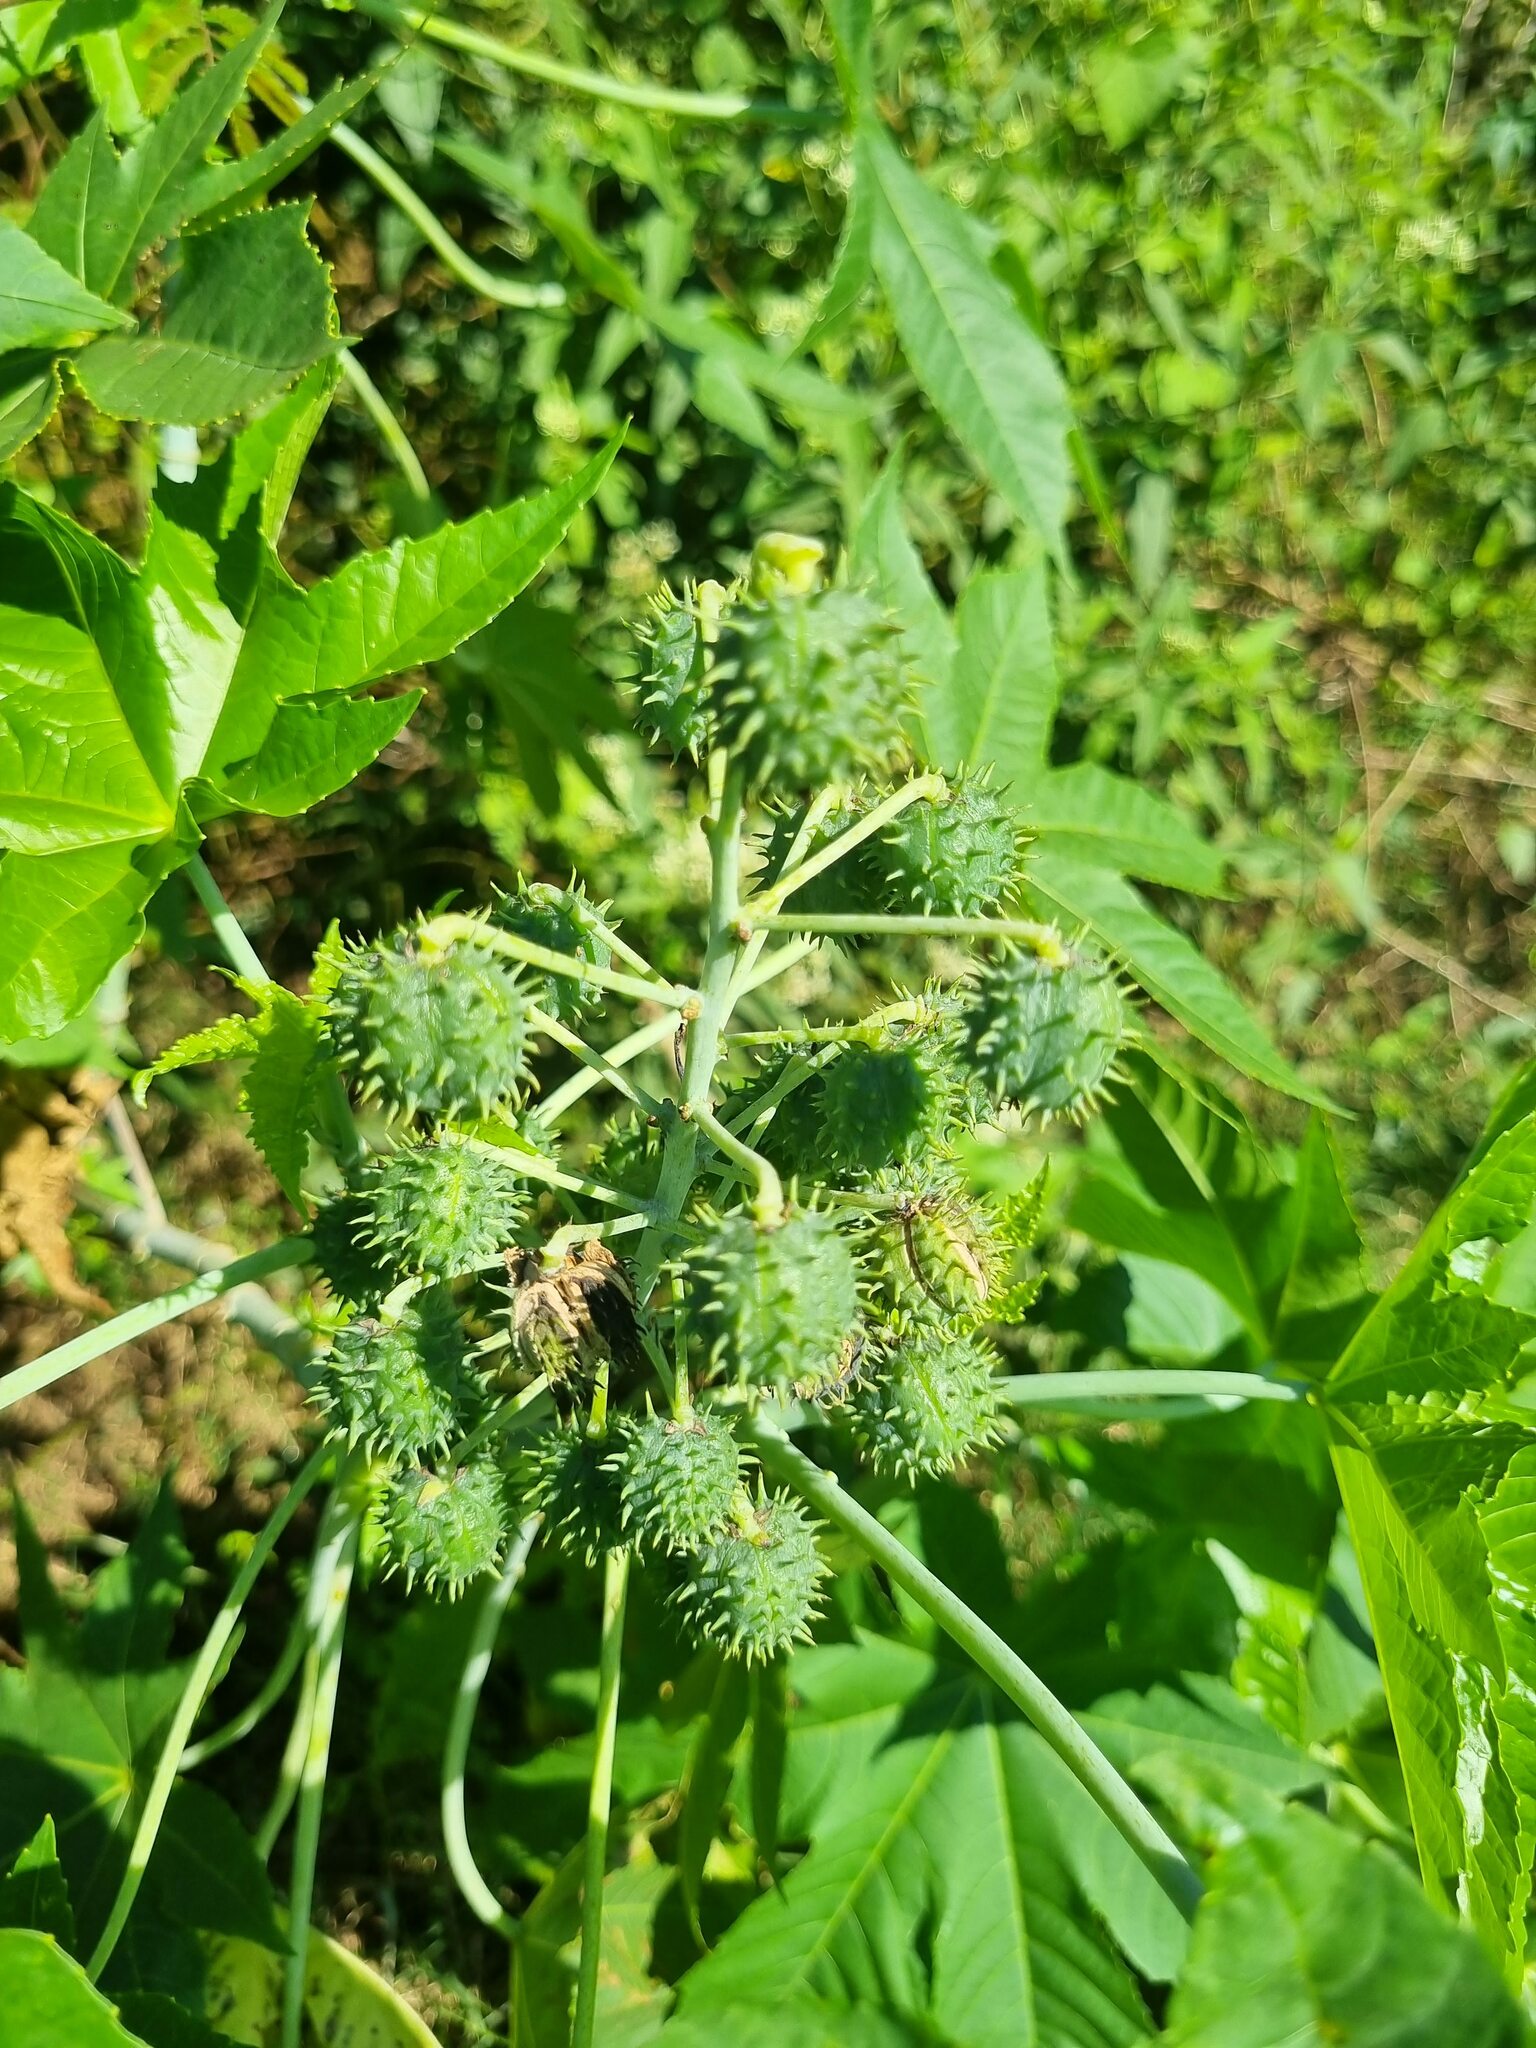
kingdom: Plantae
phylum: Tracheophyta
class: Magnoliopsida
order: Malpighiales
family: Euphorbiaceae
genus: Ricinus
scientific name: Ricinus communis
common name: Castor-oil-plant
